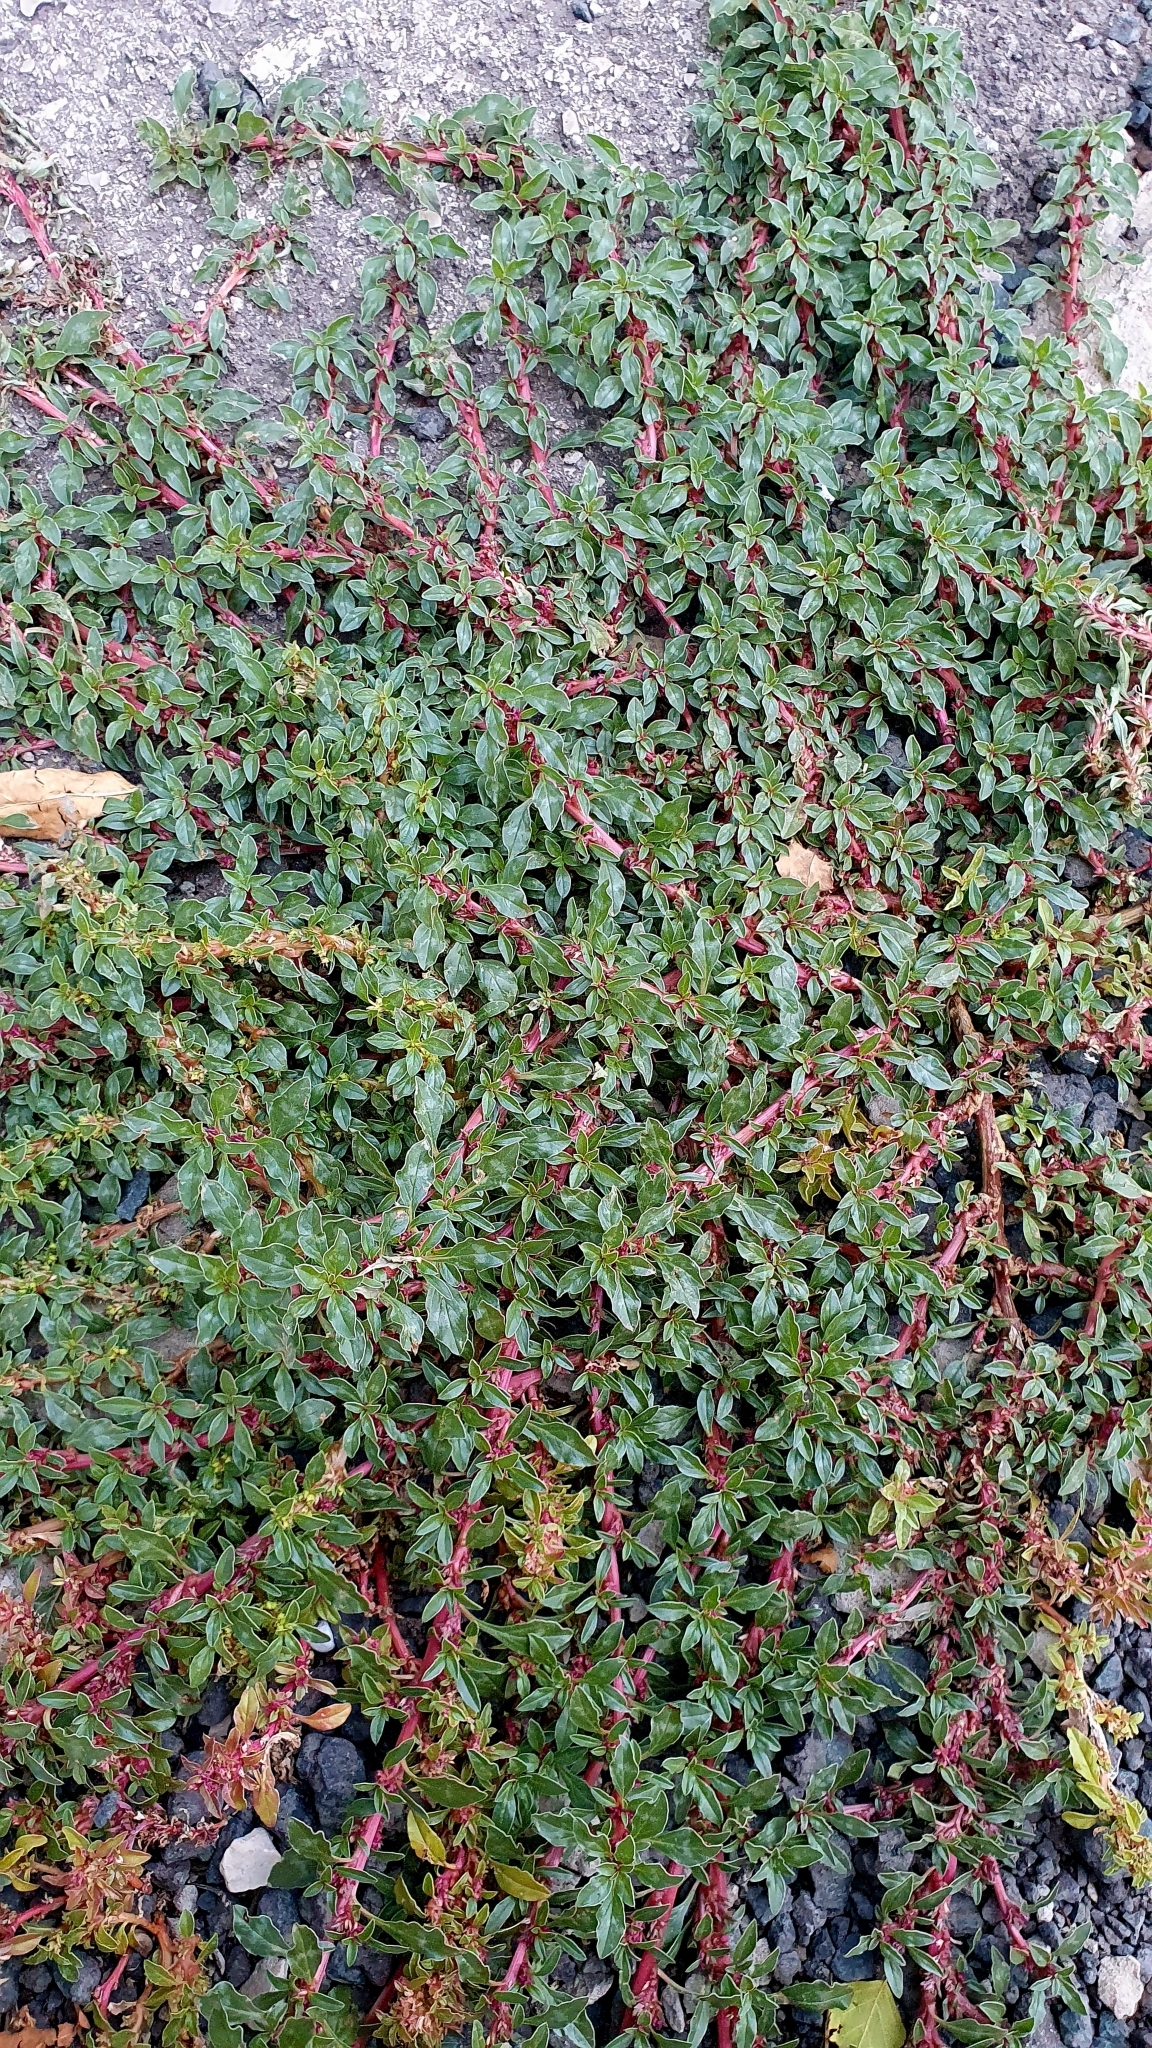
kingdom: Plantae
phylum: Tracheophyta
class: Magnoliopsida
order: Caryophyllales
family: Amaranthaceae
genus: Amaranthus
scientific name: Amaranthus blitoides
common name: Prostrate pigweed
